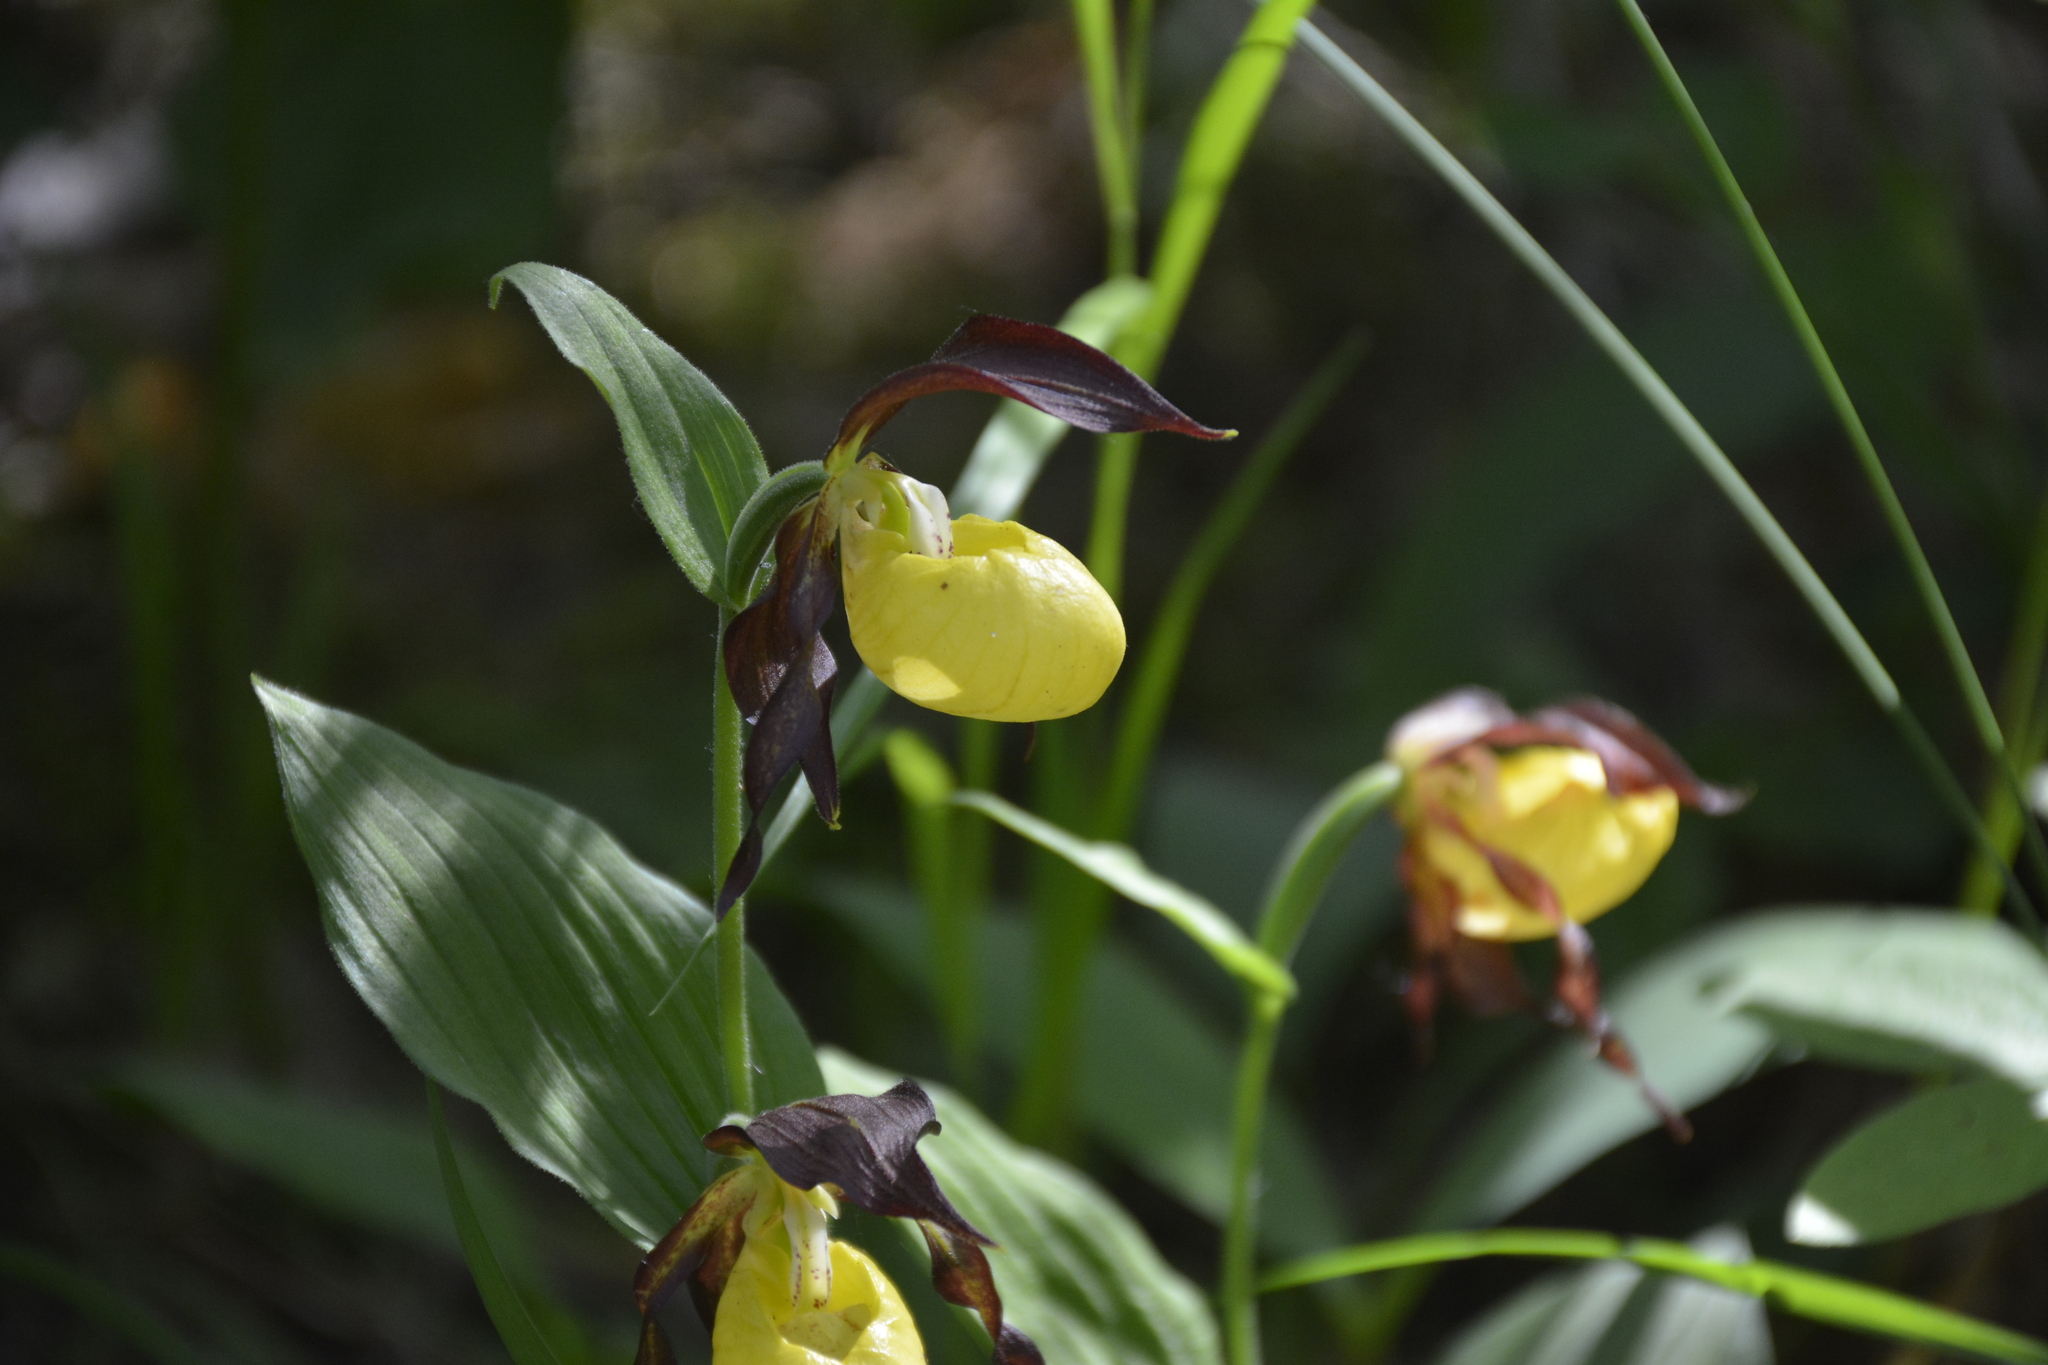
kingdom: Plantae
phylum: Tracheophyta
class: Liliopsida
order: Asparagales
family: Orchidaceae
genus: Cypripedium
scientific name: Cypripedium calceolus
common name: Lady's-slipper
